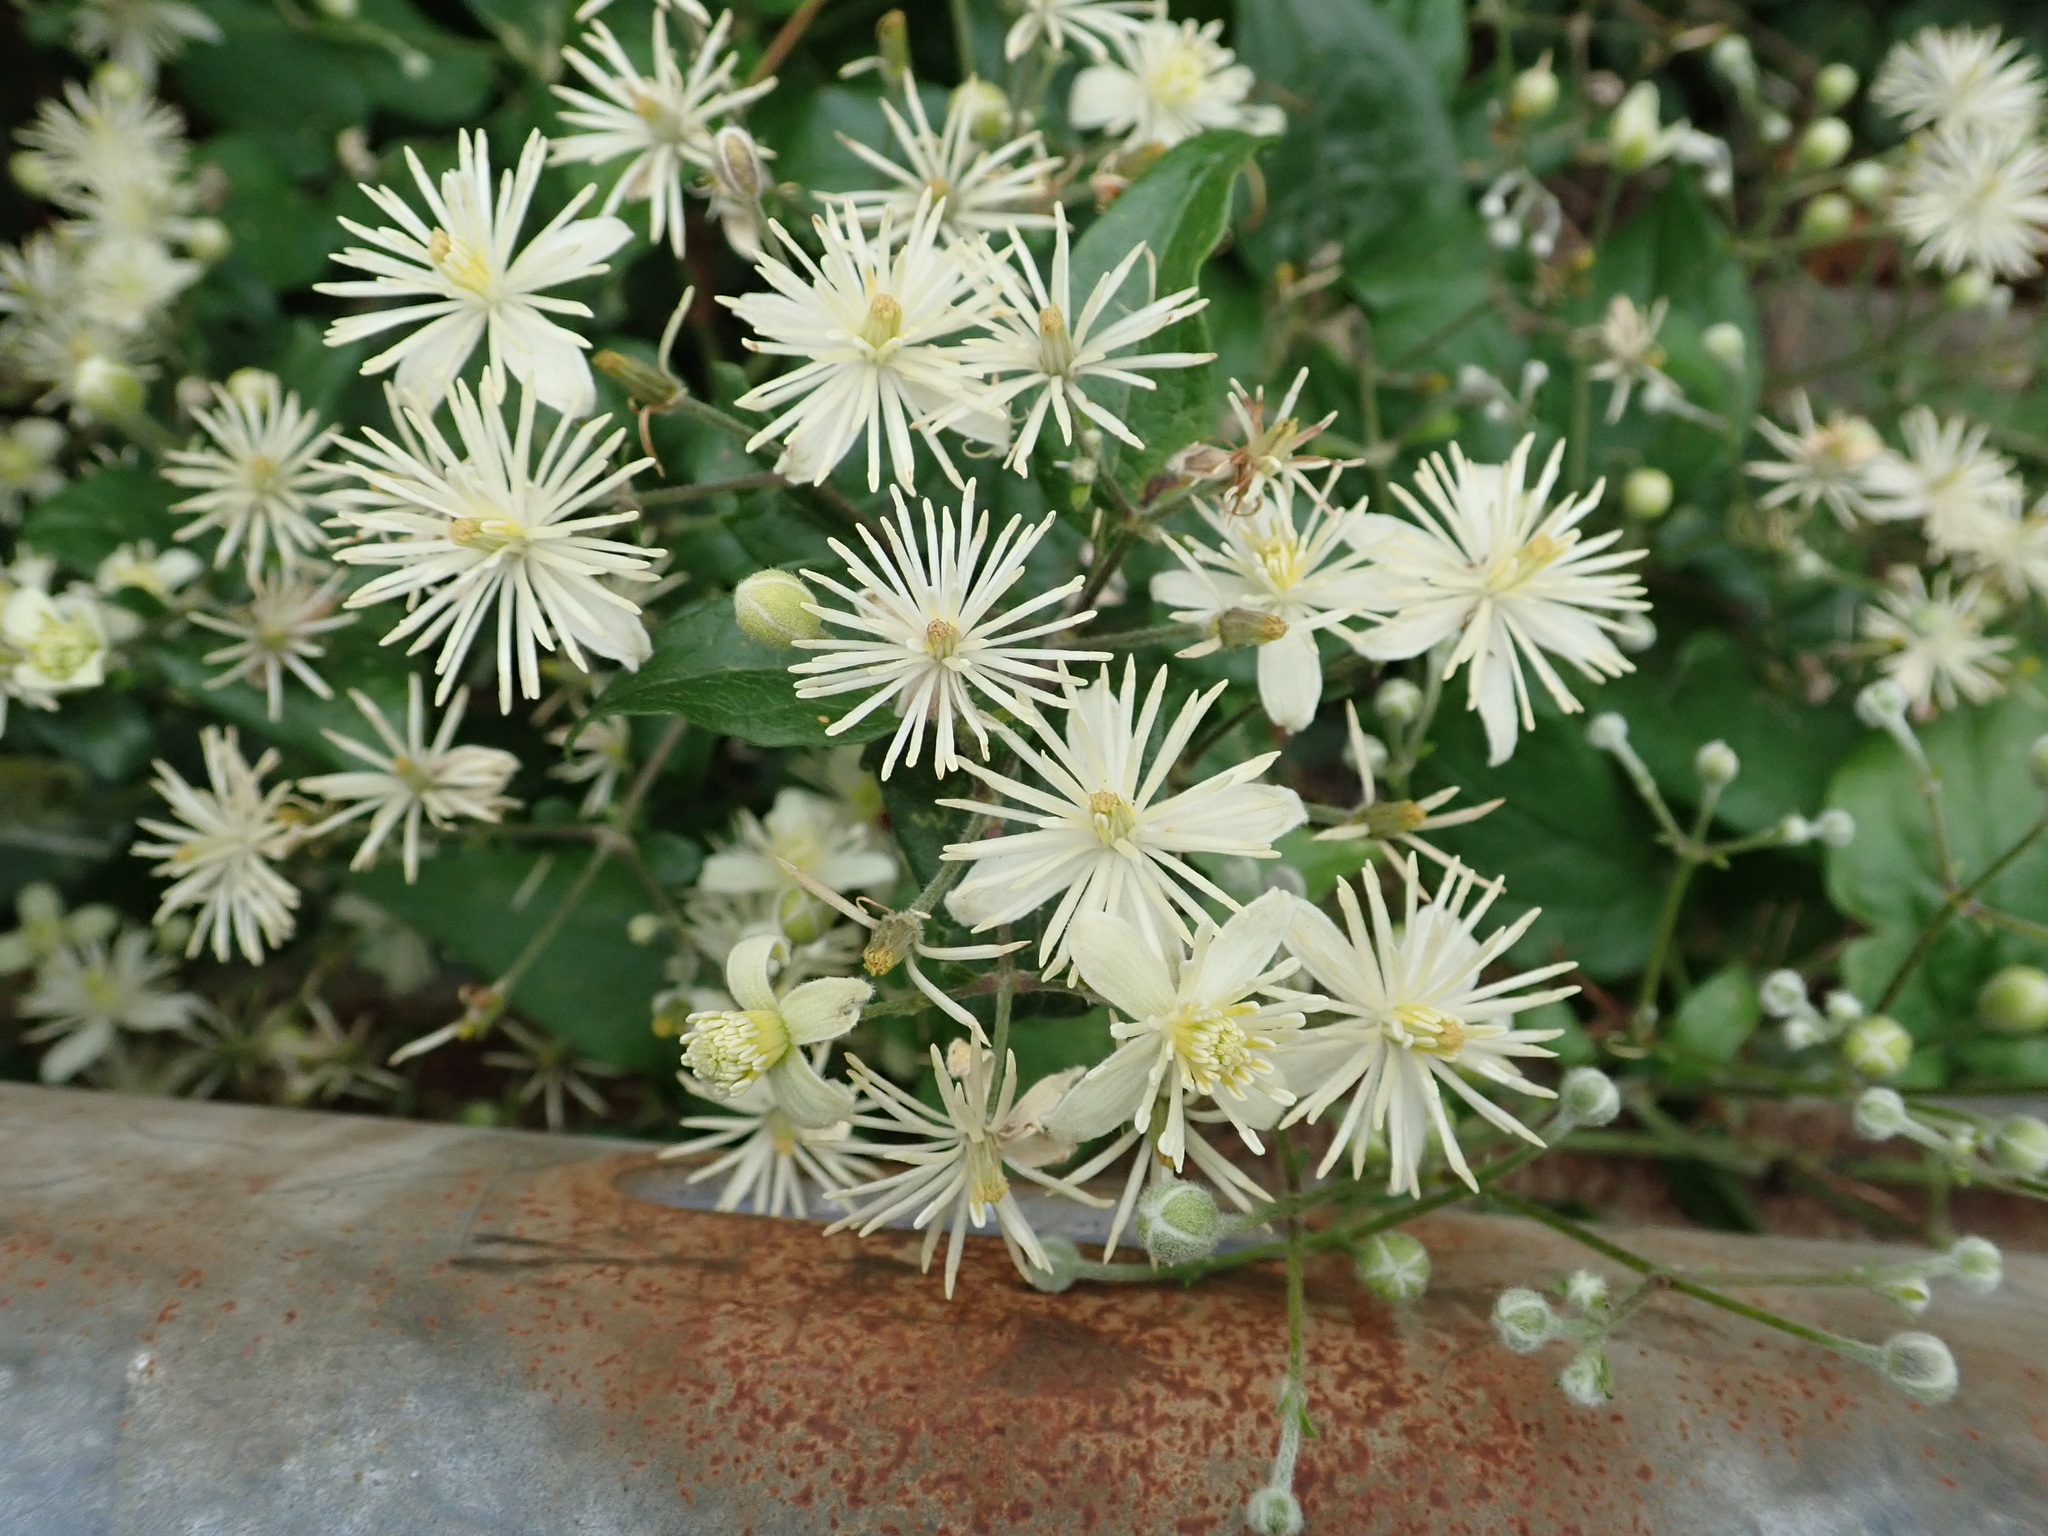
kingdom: Plantae
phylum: Tracheophyta
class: Magnoliopsida
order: Ranunculales
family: Ranunculaceae
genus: Clematis
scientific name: Clematis vitalba
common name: Evergreen clematis
